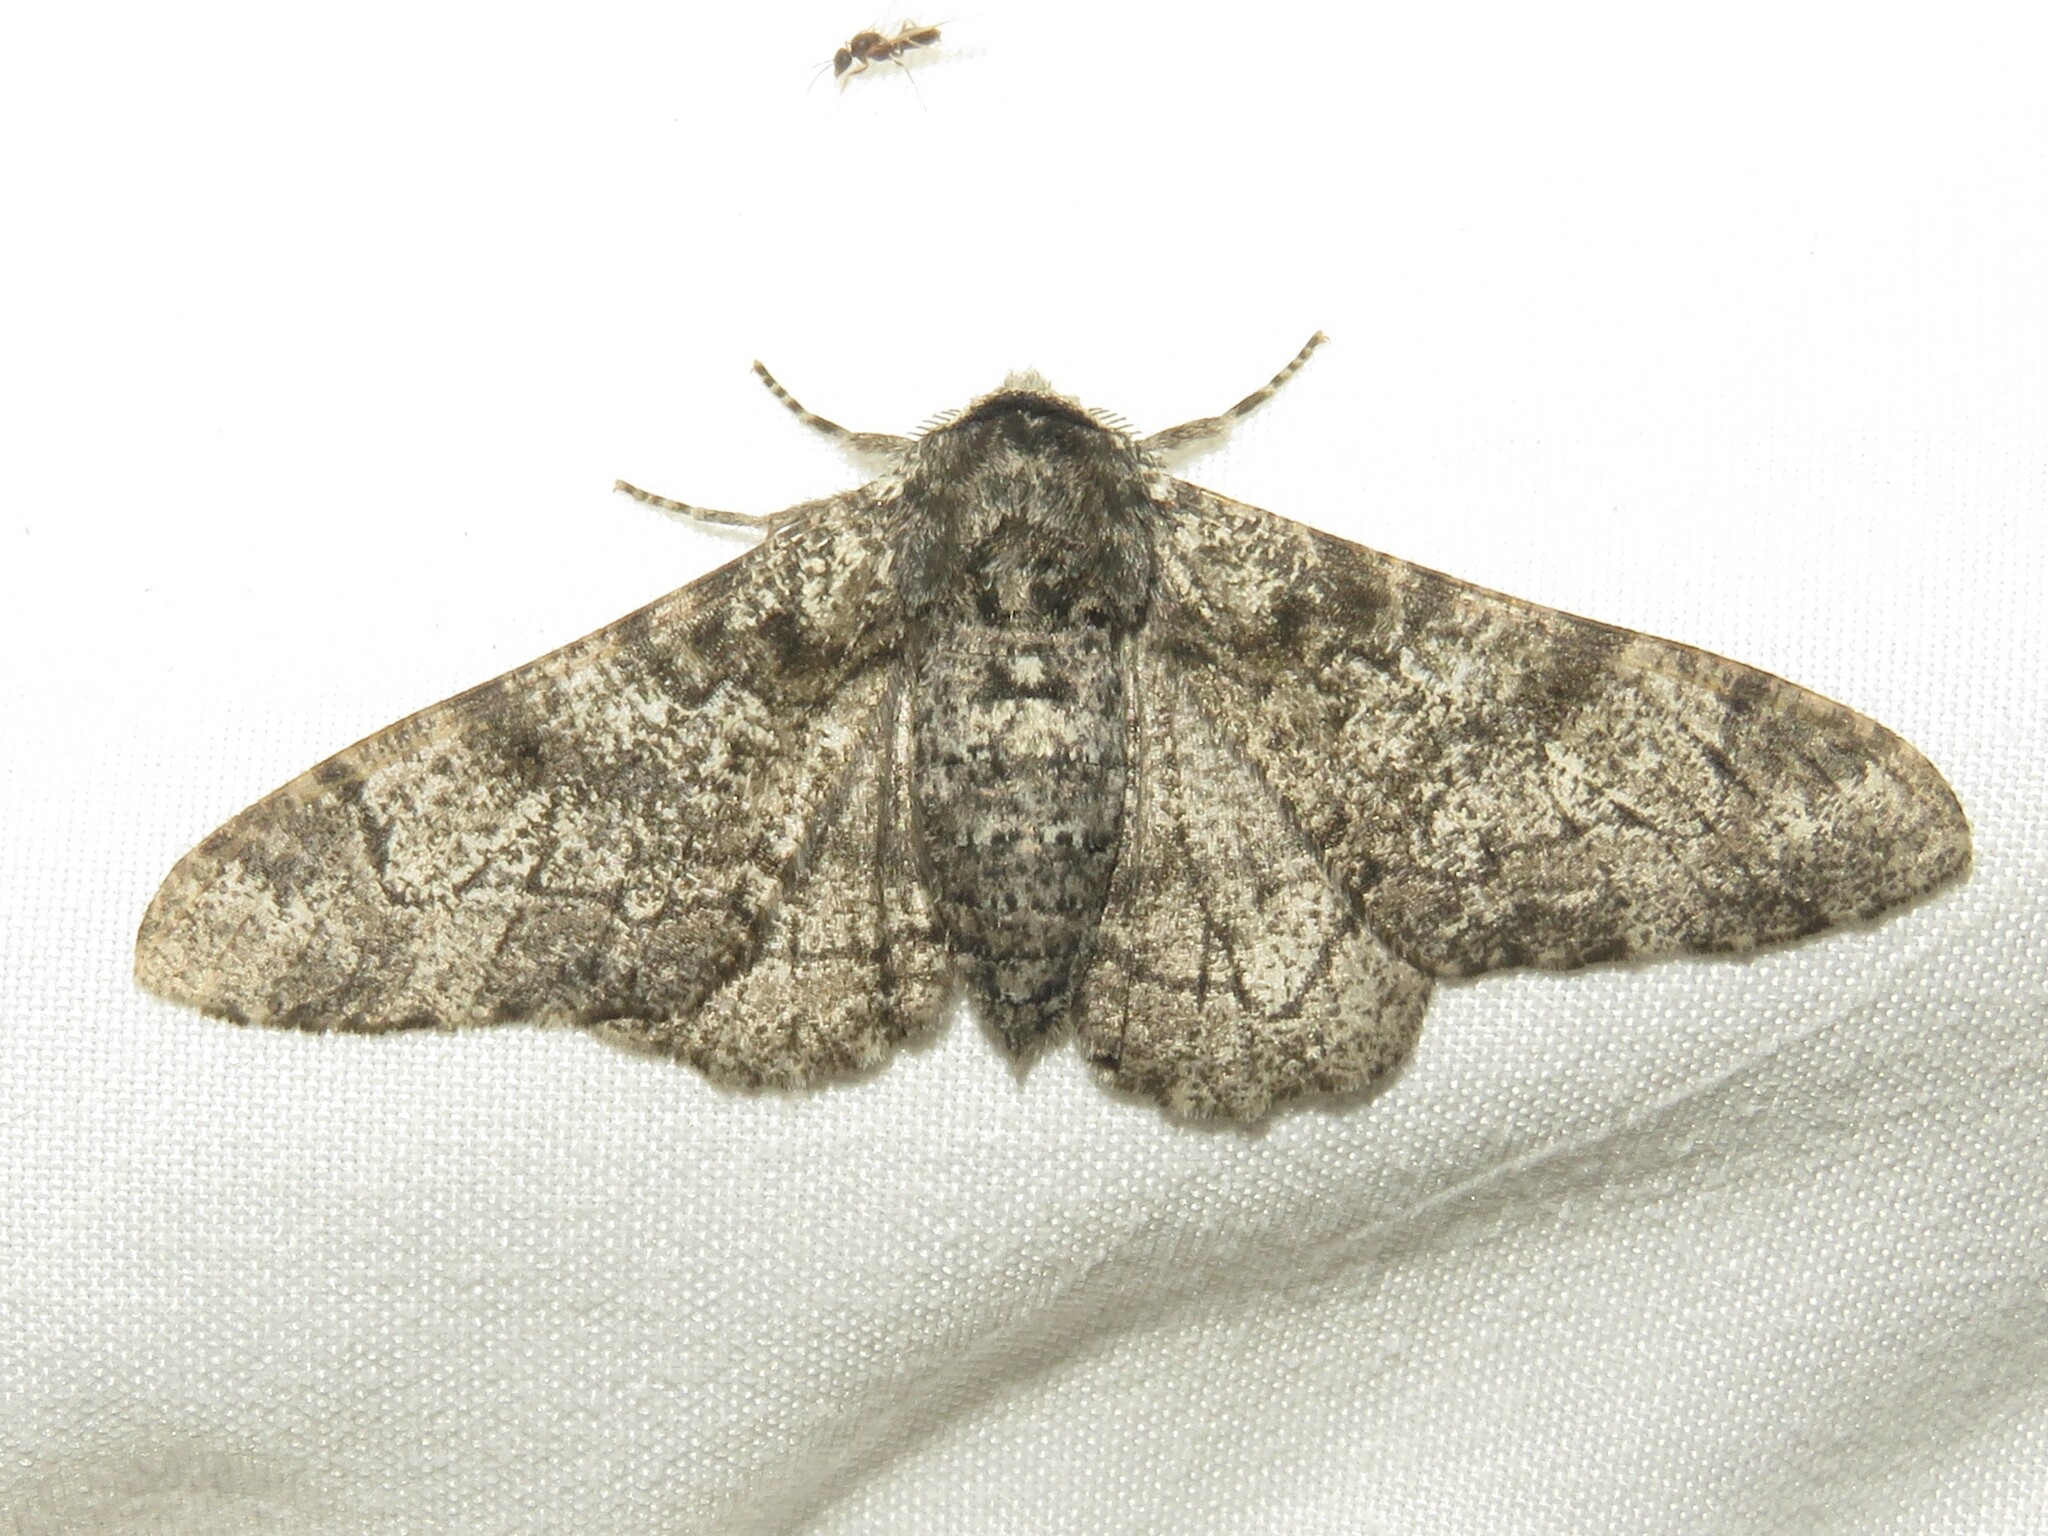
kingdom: Animalia
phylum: Arthropoda
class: Insecta
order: Lepidoptera
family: Geometridae
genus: Biston
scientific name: Biston betularia
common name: Peppered moth
